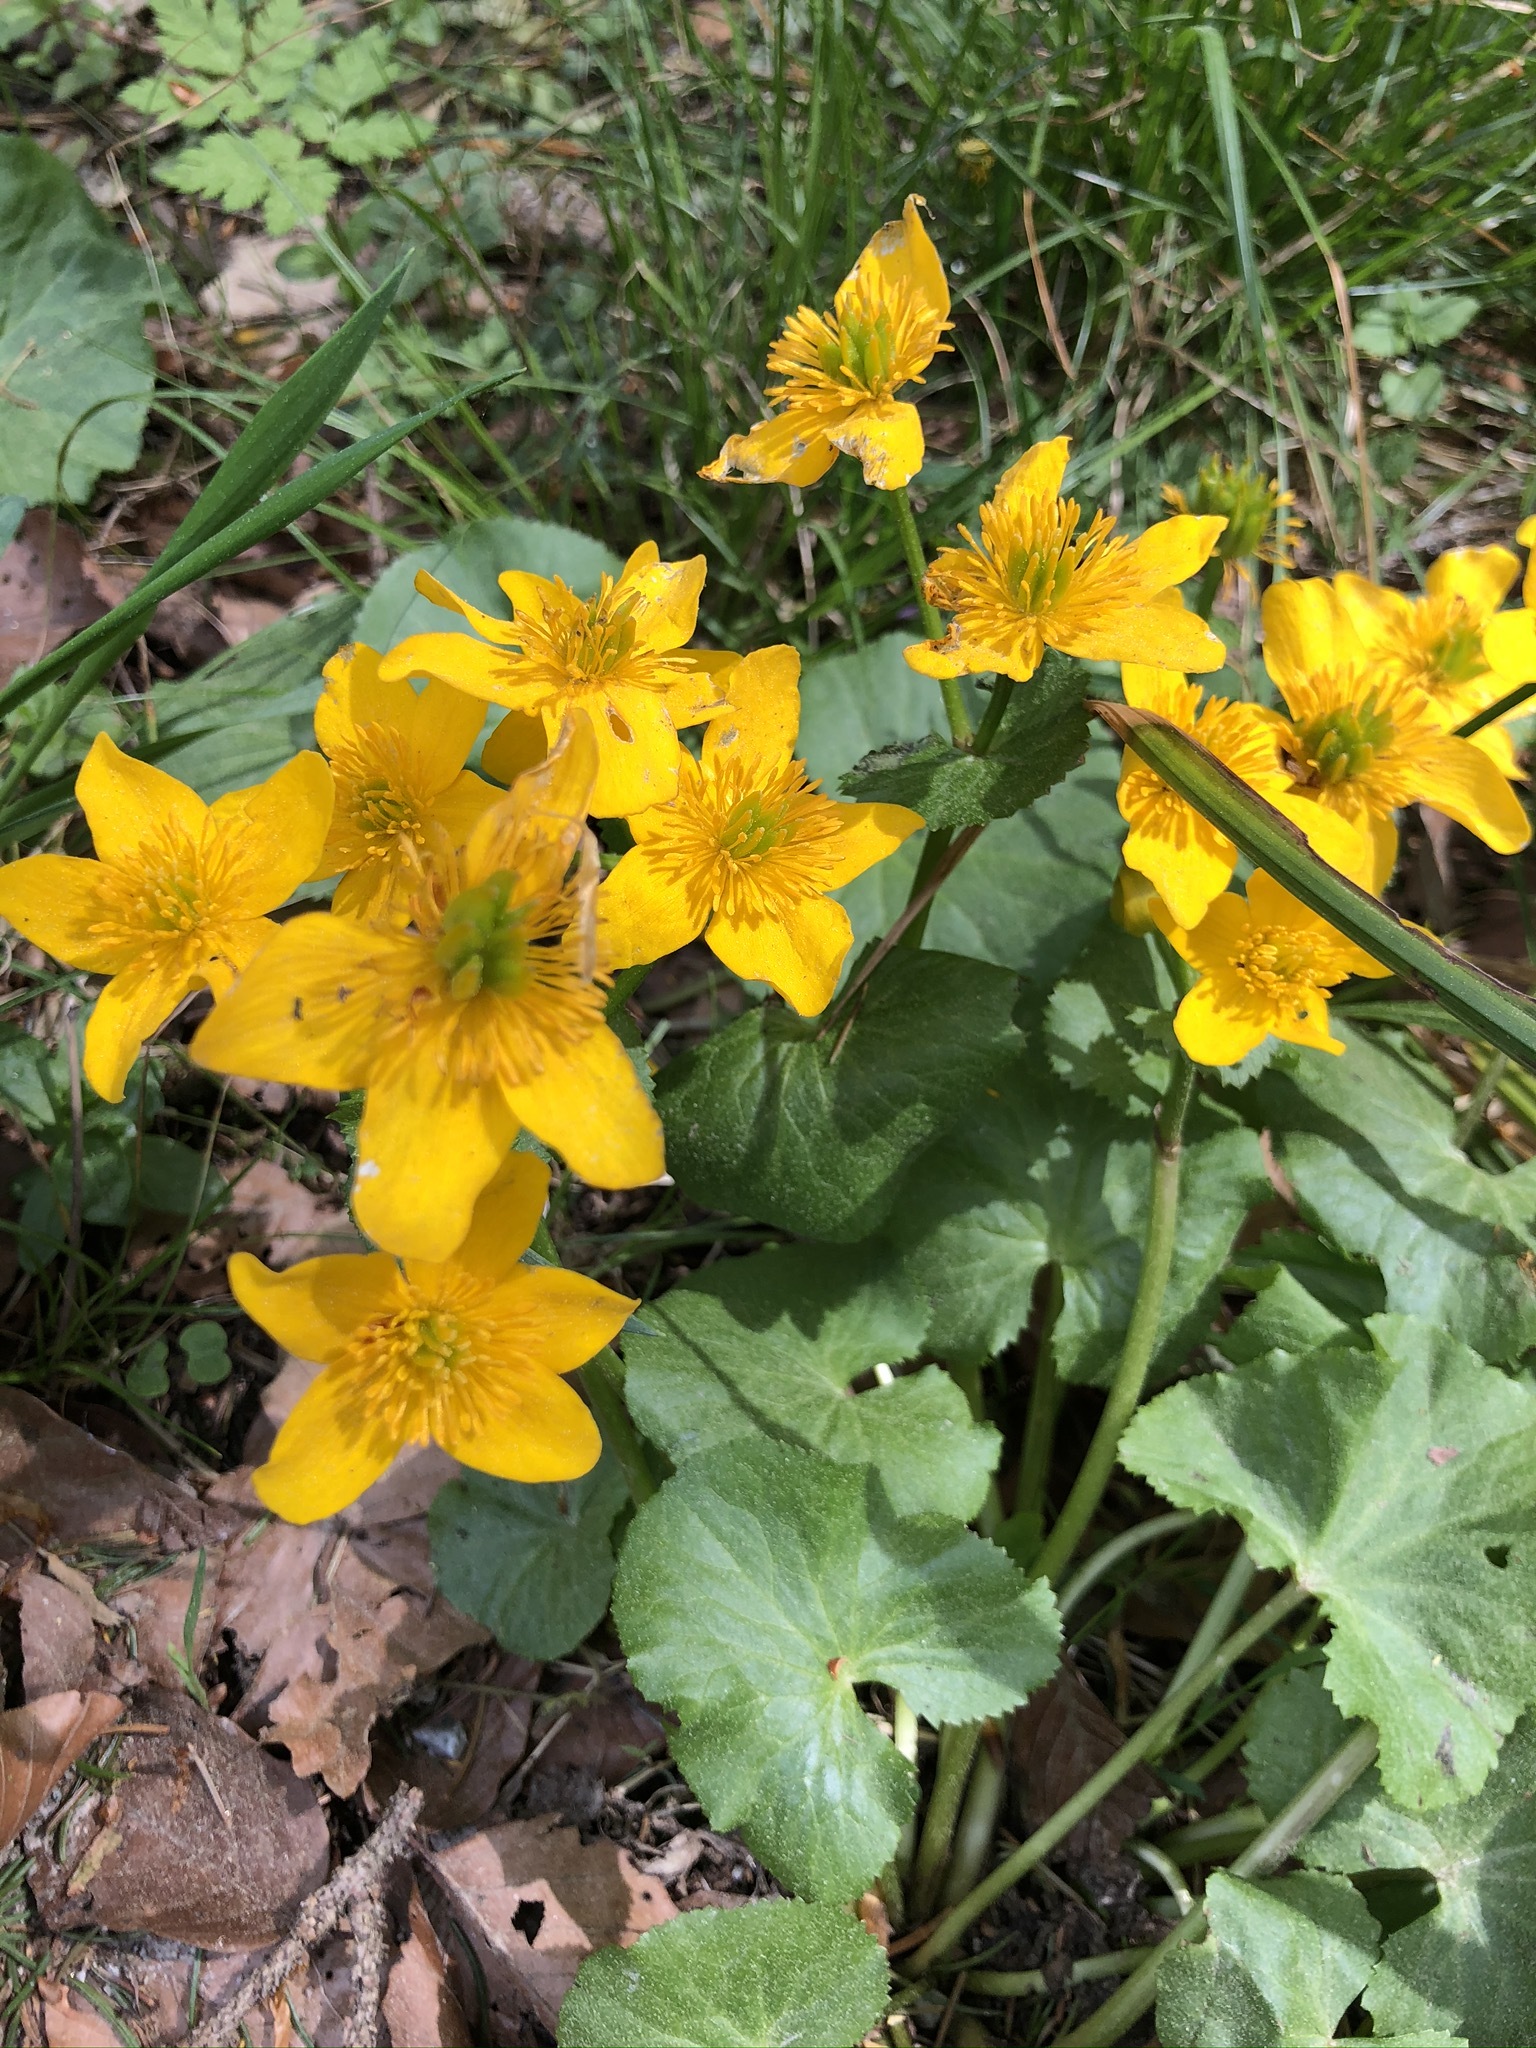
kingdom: Plantae
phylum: Tracheophyta
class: Magnoliopsida
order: Ranunculales
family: Ranunculaceae
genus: Caltha
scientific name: Caltha palustris
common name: Marsh marigold
